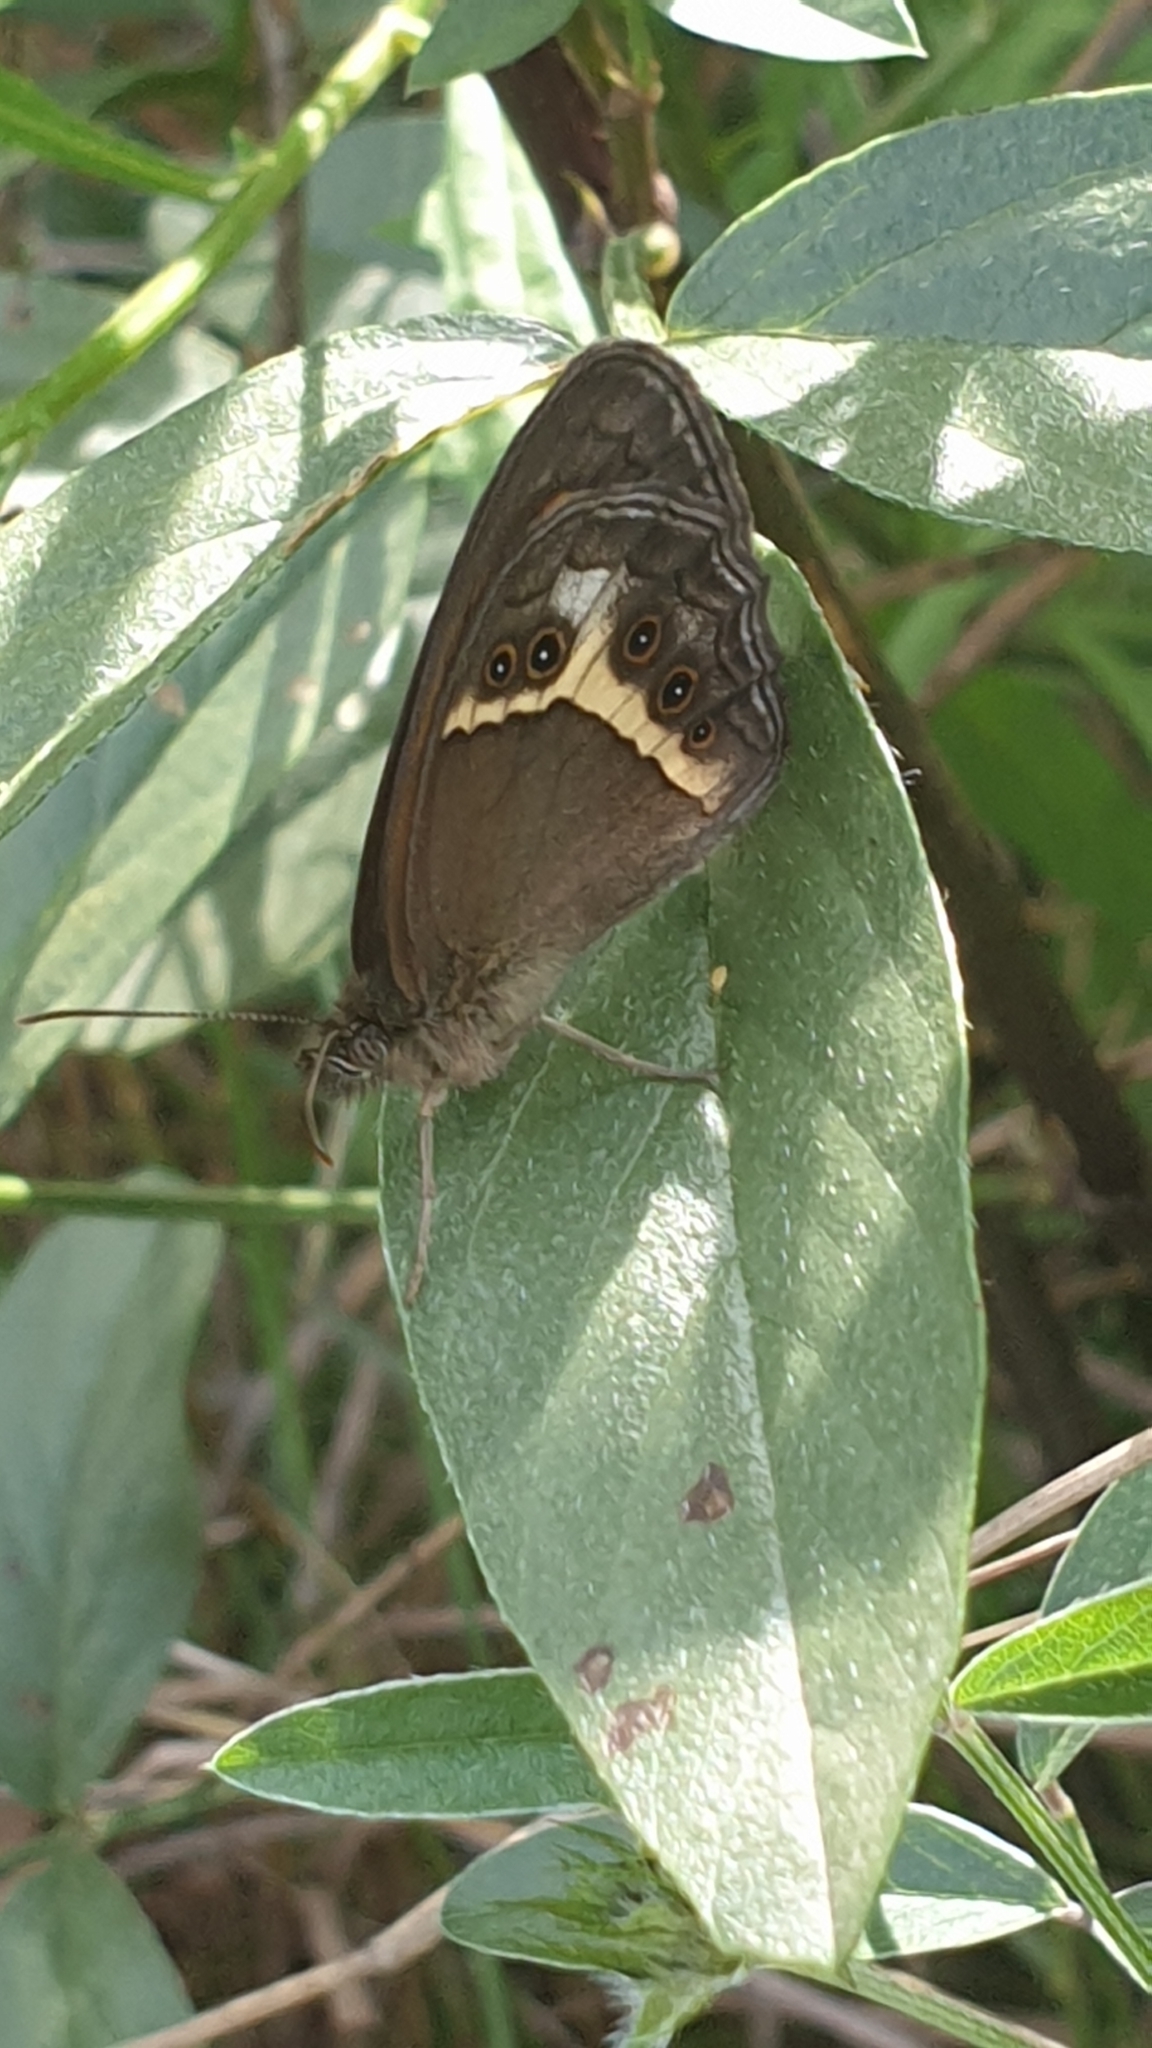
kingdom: Animalia
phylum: Arthropoda
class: Insecta
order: Lepidoptera
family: Nymphalidae
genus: Pyronia
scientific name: Pyronia bathseba
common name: Spanish gatekeeper
